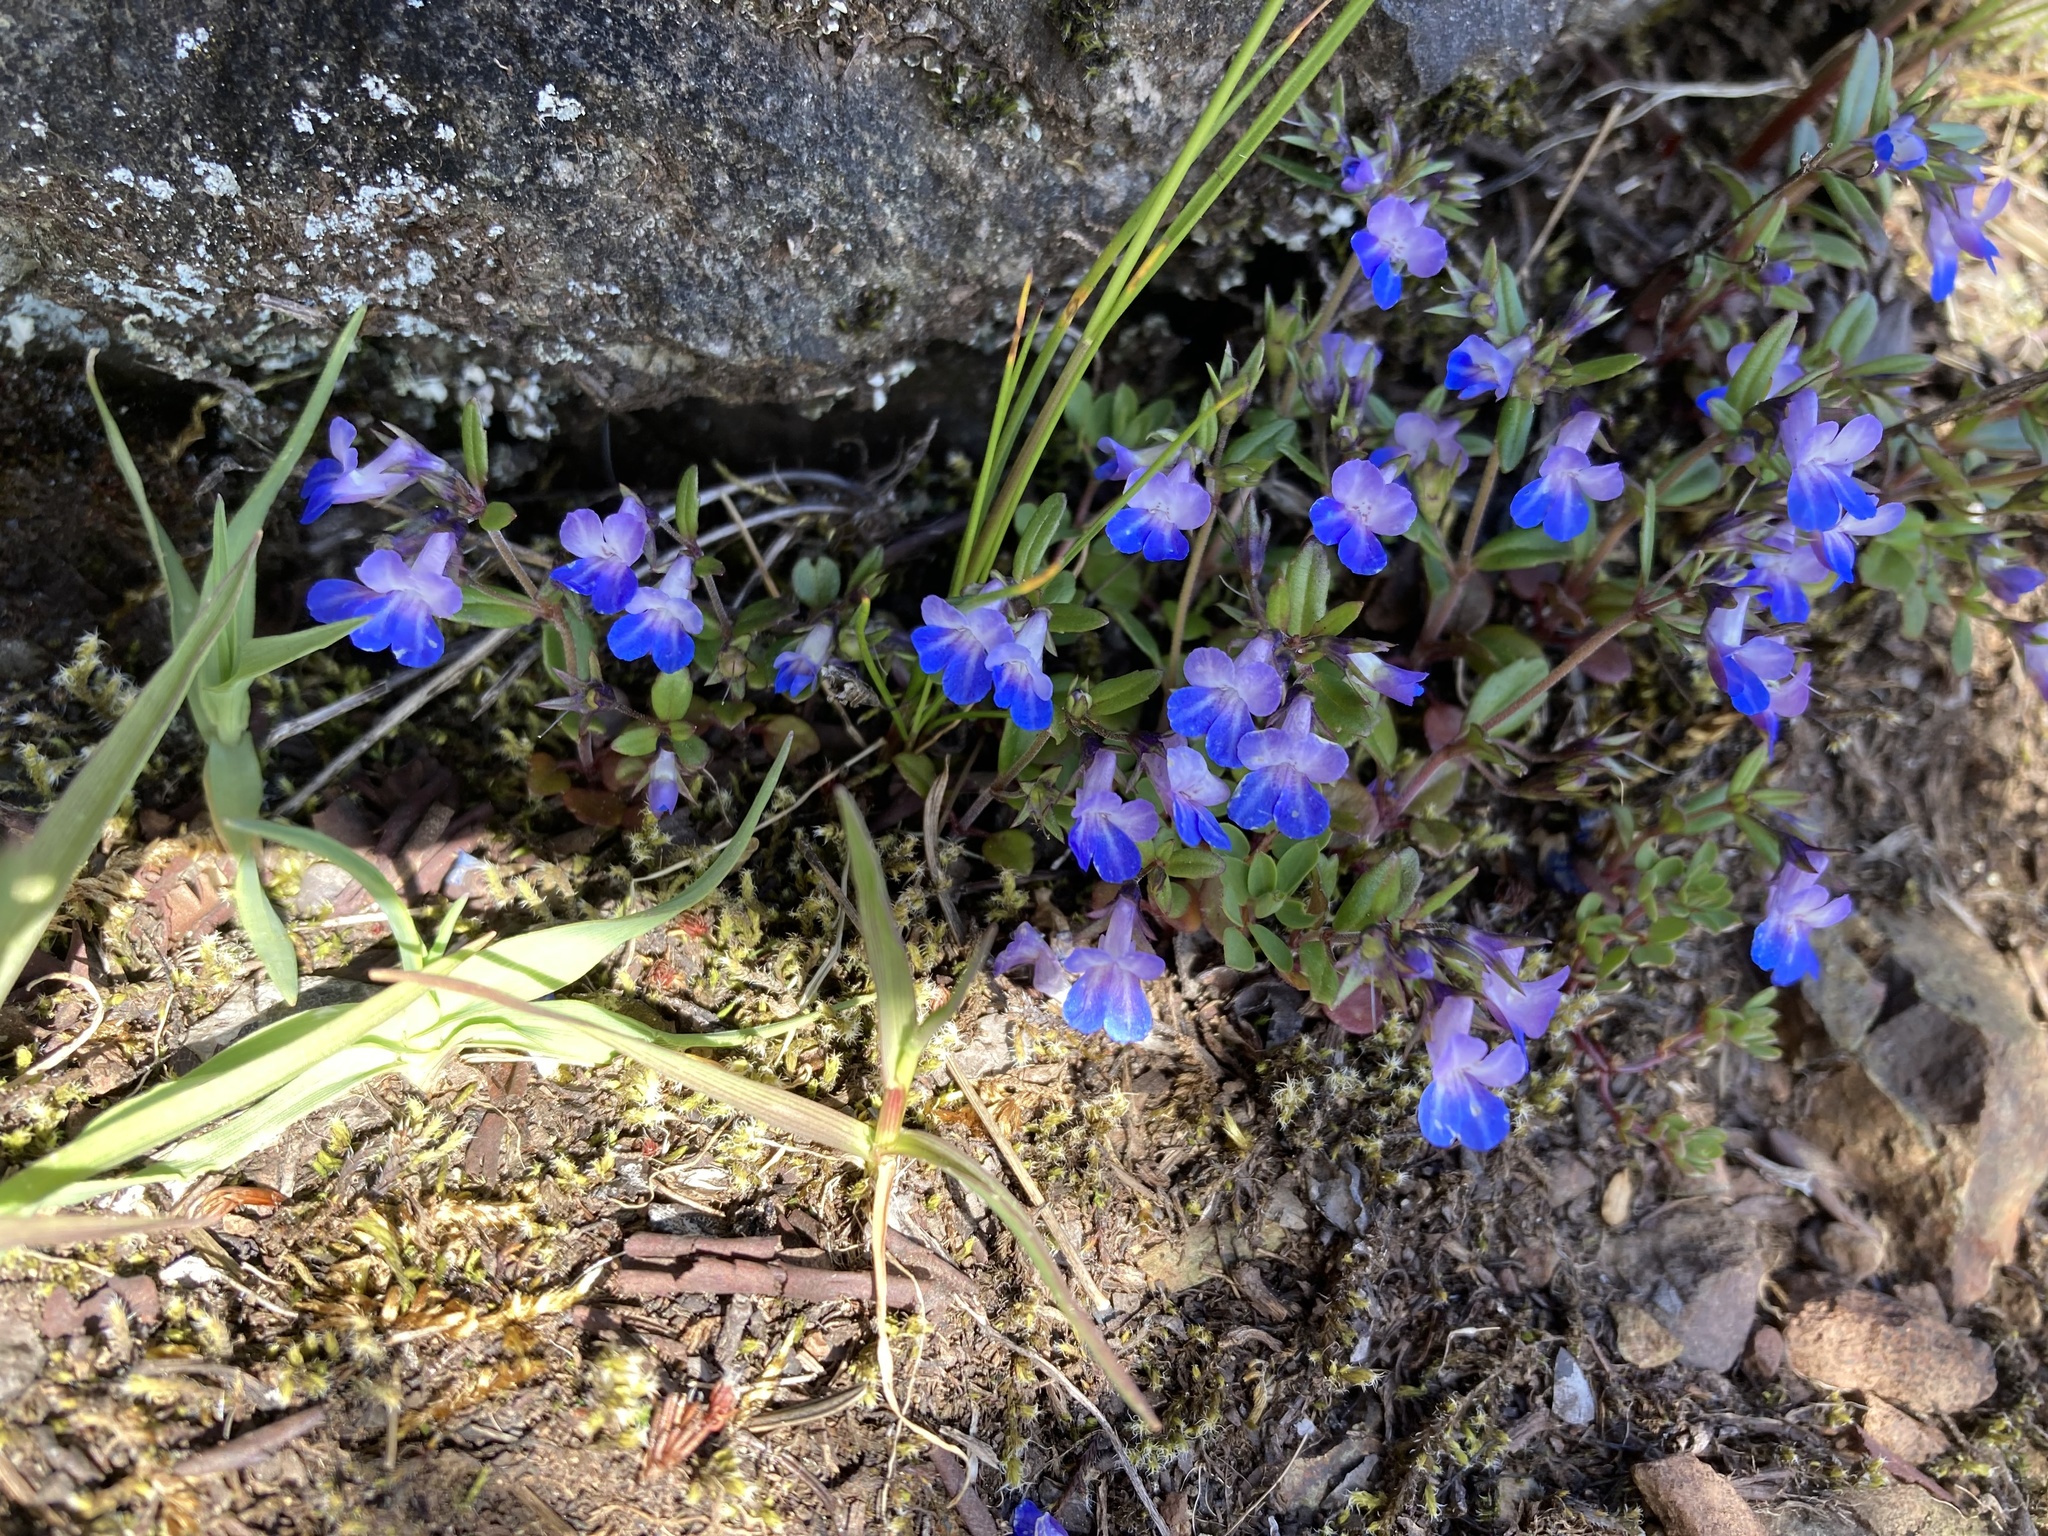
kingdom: Plantae
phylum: Tracheophyta
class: Magnoliopsida
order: Lamiales
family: Plantaginaceae
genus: Collinsia
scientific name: Collinsia grandiflora
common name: Large-flower blue-eyed-mary
